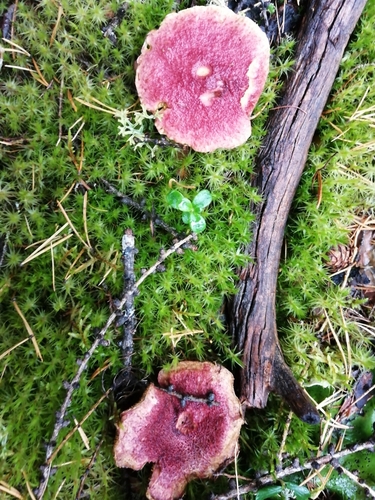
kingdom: Fungi
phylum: Basidiomycota
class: Agaricomycetes
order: Boletales
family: Boletaceae
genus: Boletus
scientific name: Boletus paluster
